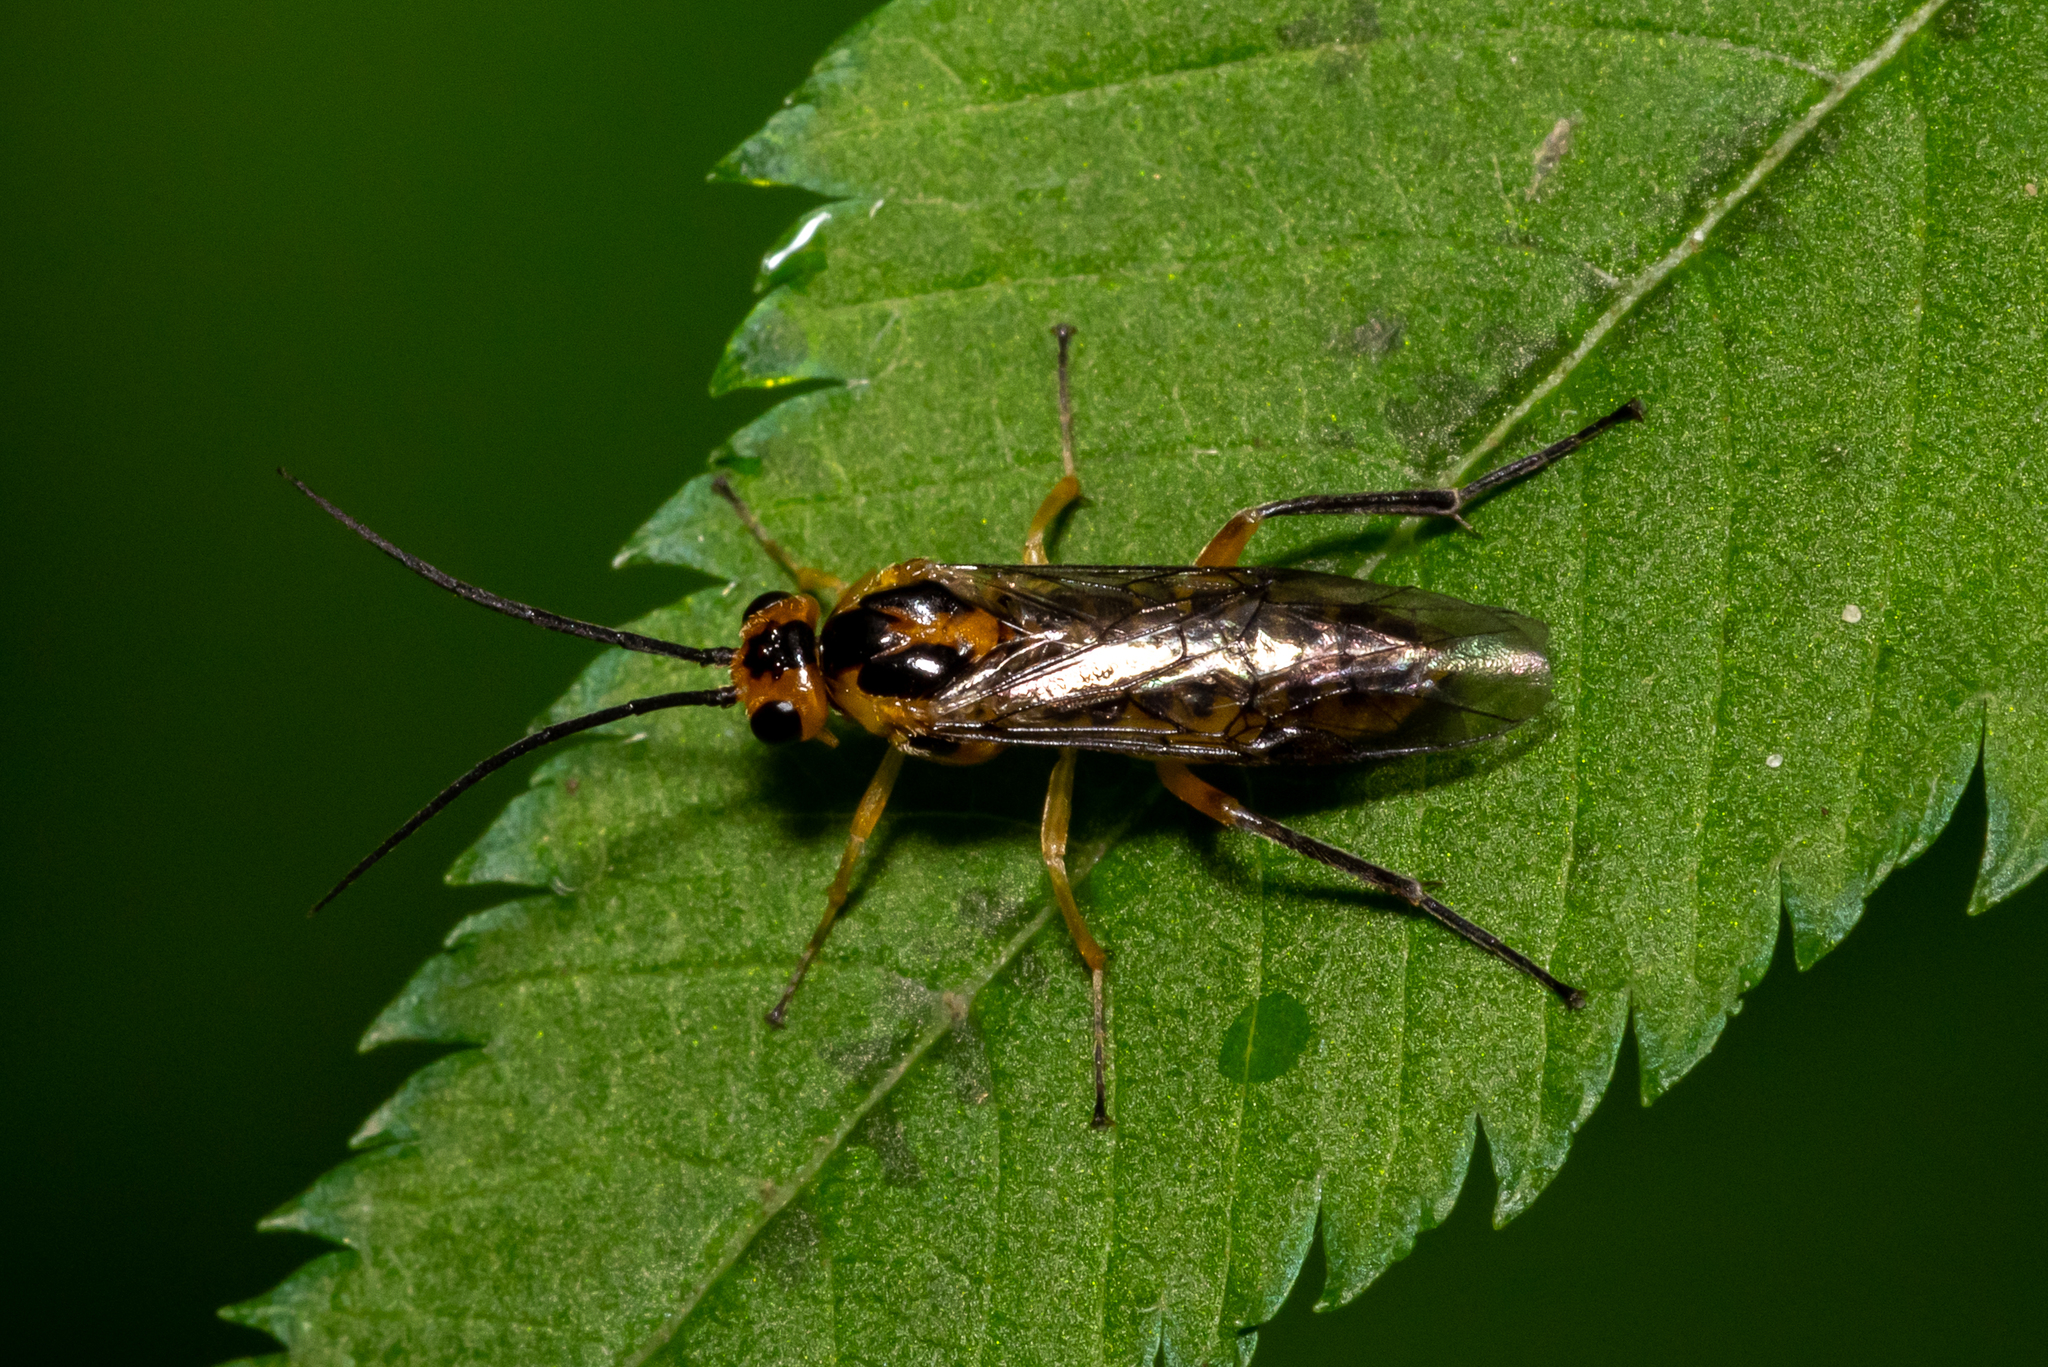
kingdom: Animalia
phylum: Arthropoda
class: Insecta
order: Hymenoptera
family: Tenthredinidae
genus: Euura
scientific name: Euura tibialis
